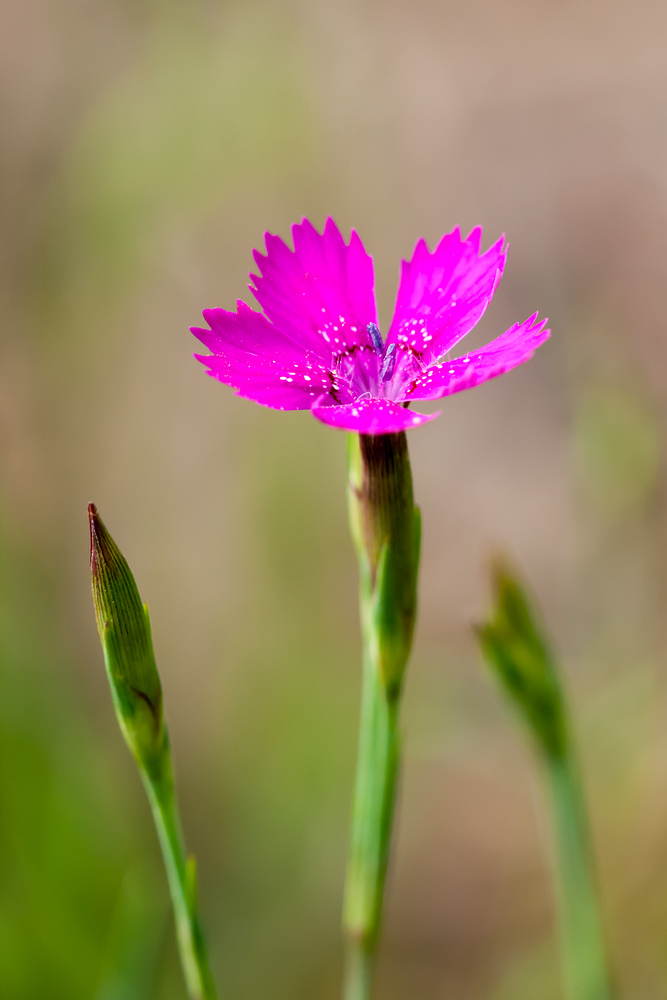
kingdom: Plantae
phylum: Tracheophyta
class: Magnoliopsida
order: Caryophyllales
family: Caryophyllaceae
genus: Dianthus
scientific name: Dianthus deltoides
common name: Maiden pink
